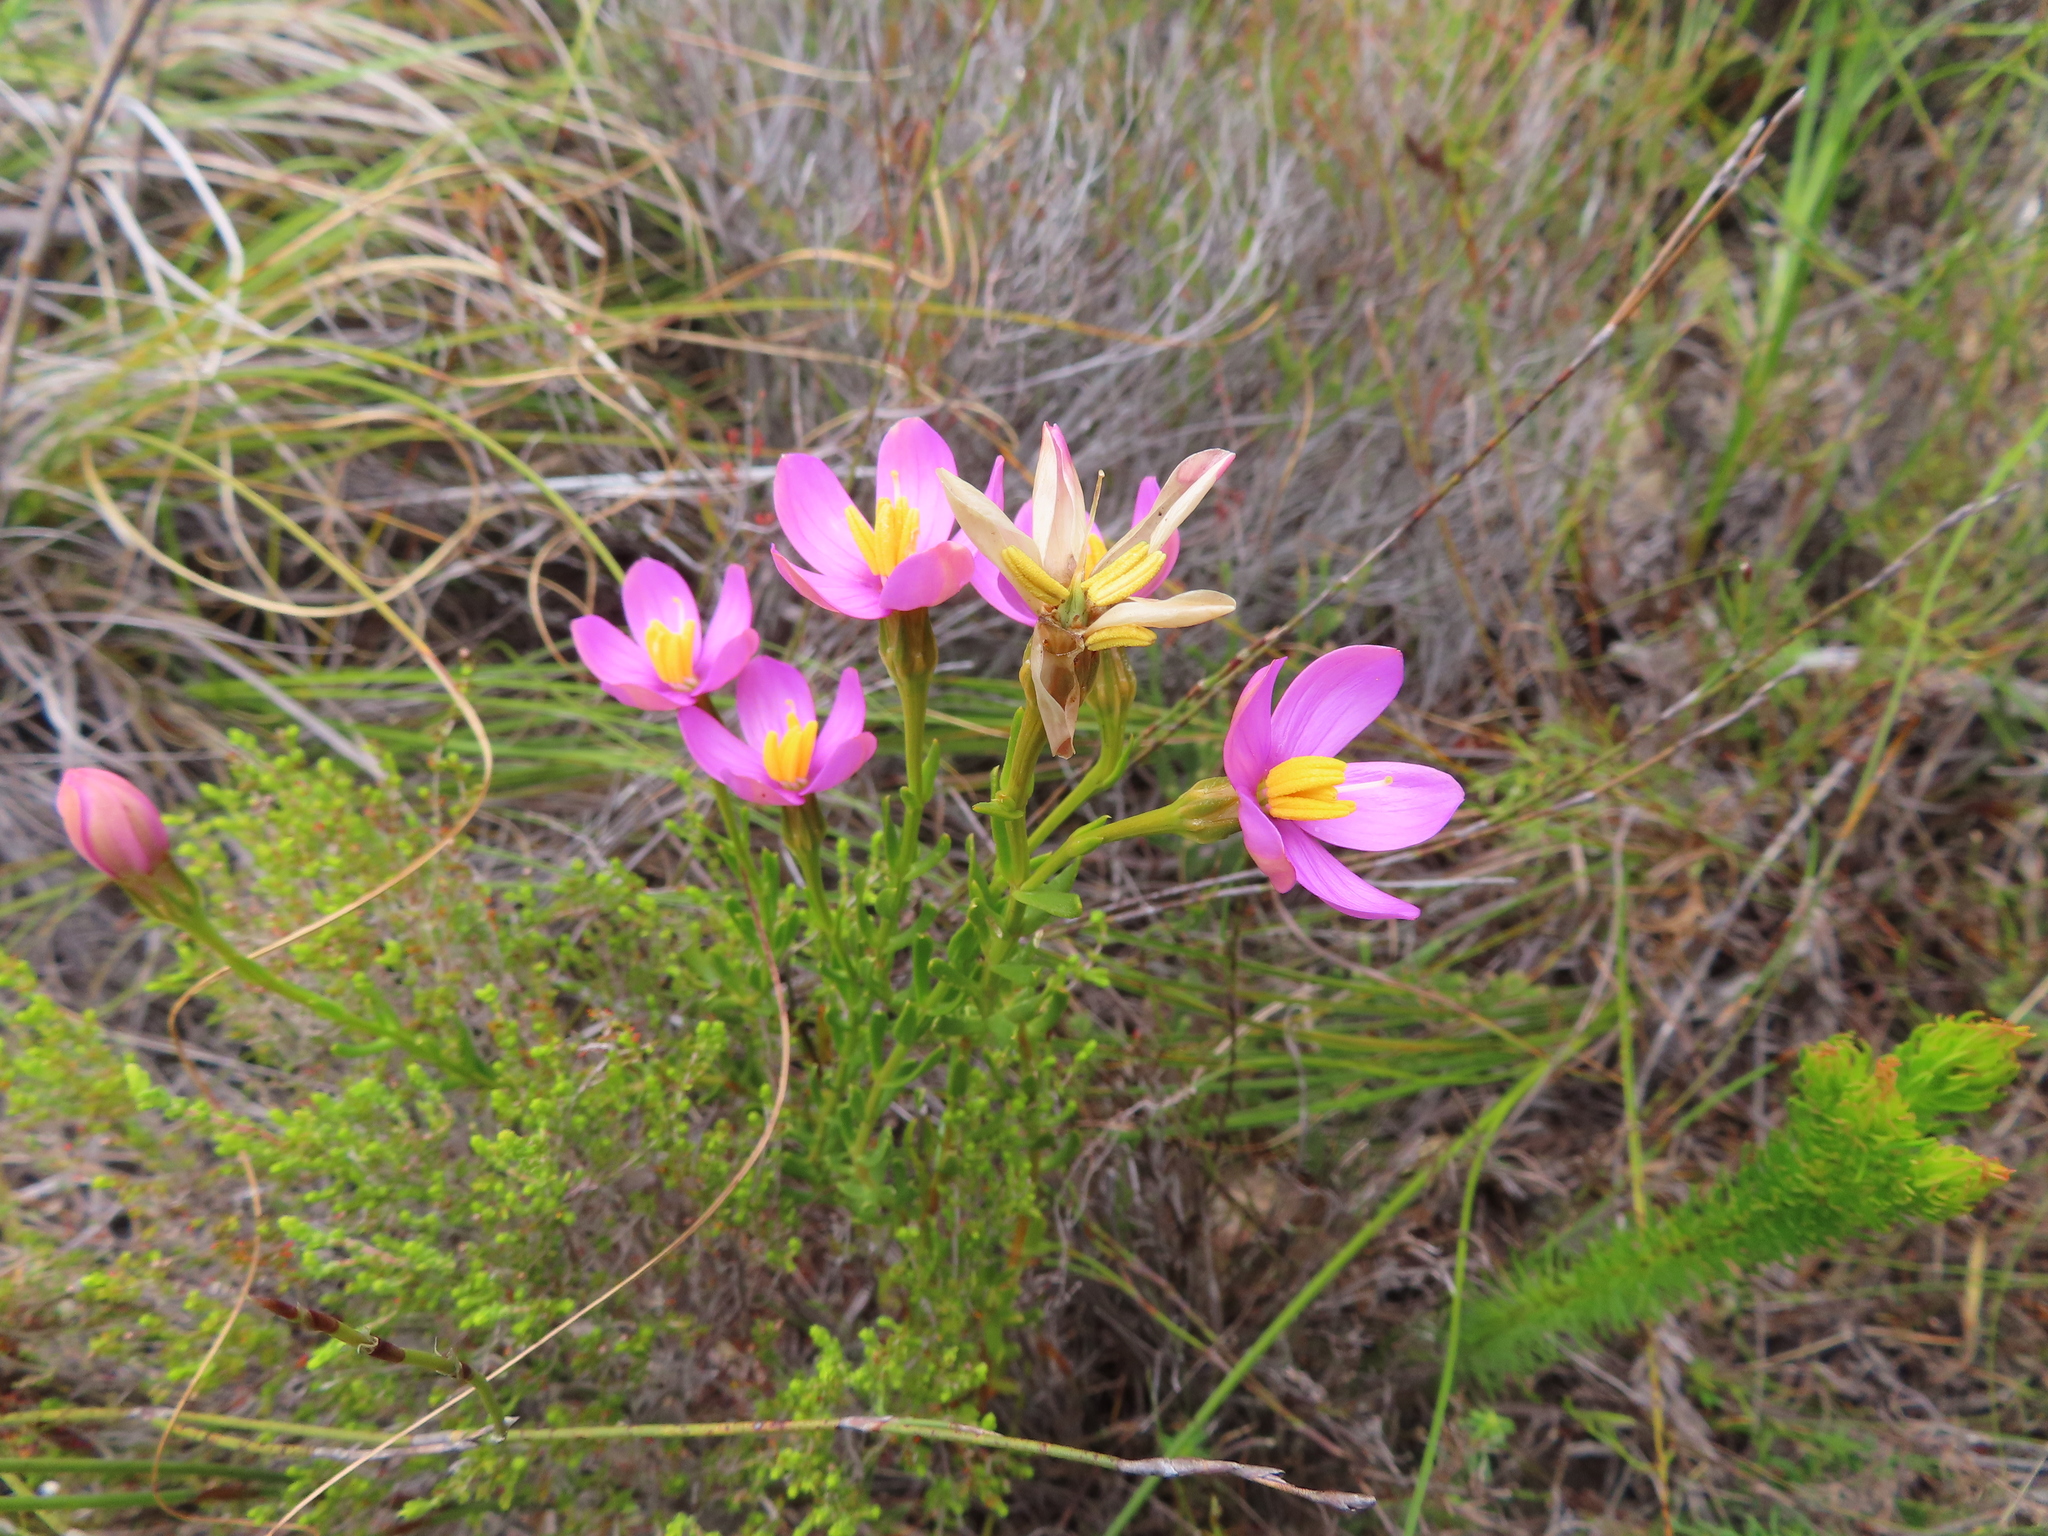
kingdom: Plantae
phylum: Tracheophyta
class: Magnoliopsida
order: Gentianales
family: Gentianaceae
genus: Chironia
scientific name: Chironia tetragona
